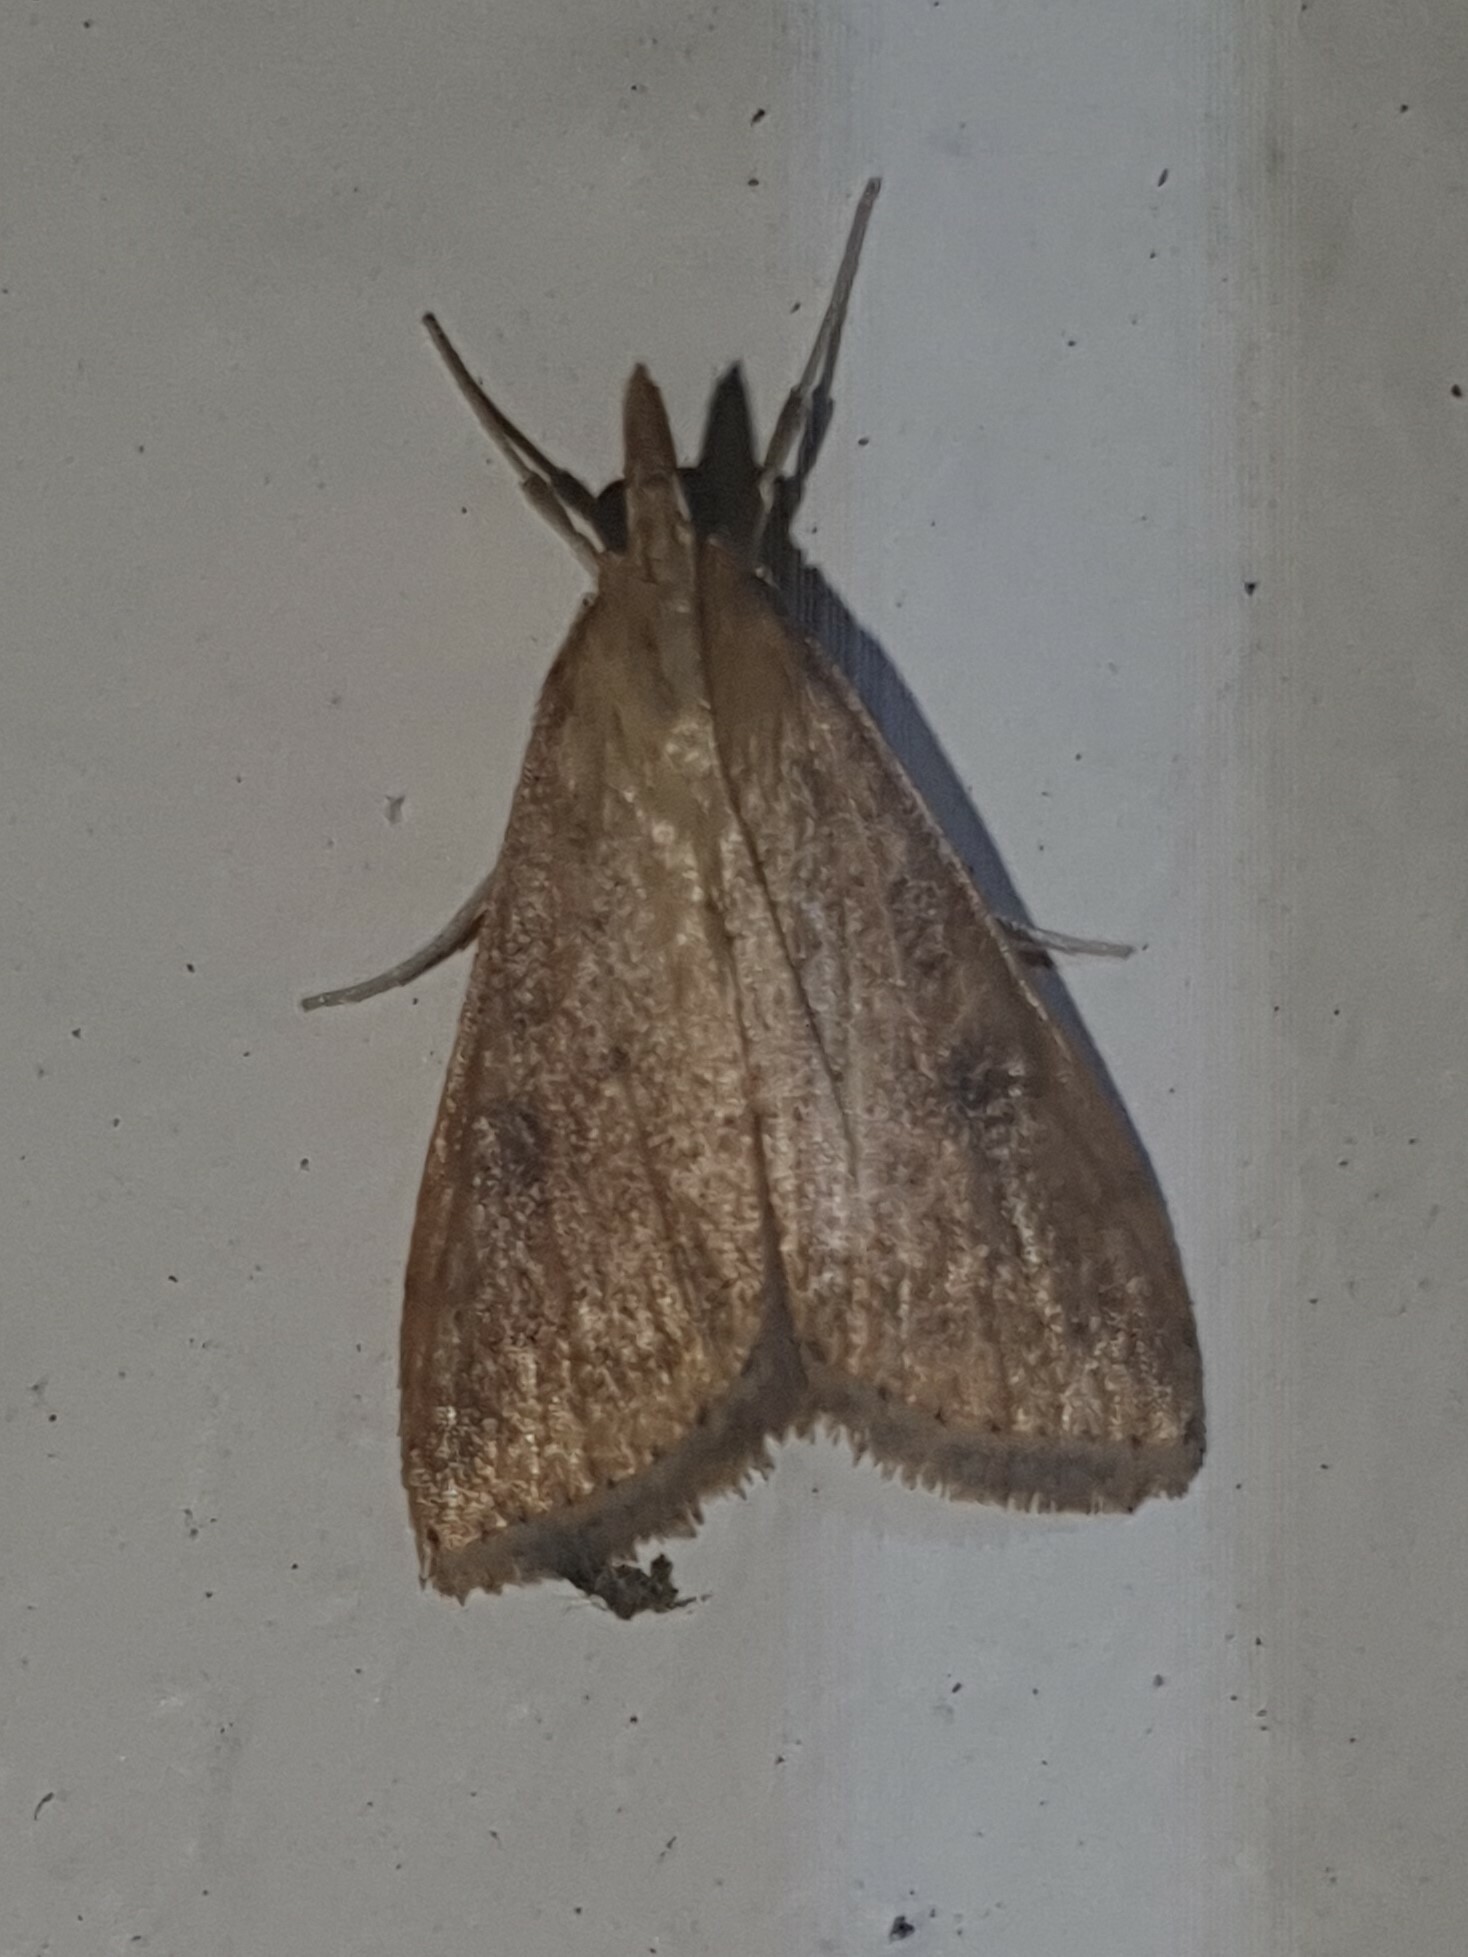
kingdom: Animalia
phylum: Arthropoda
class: Insecta
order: Lepidoptera
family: Crambidae
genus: Udea
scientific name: Udea ferrugalis
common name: Rusty dot
